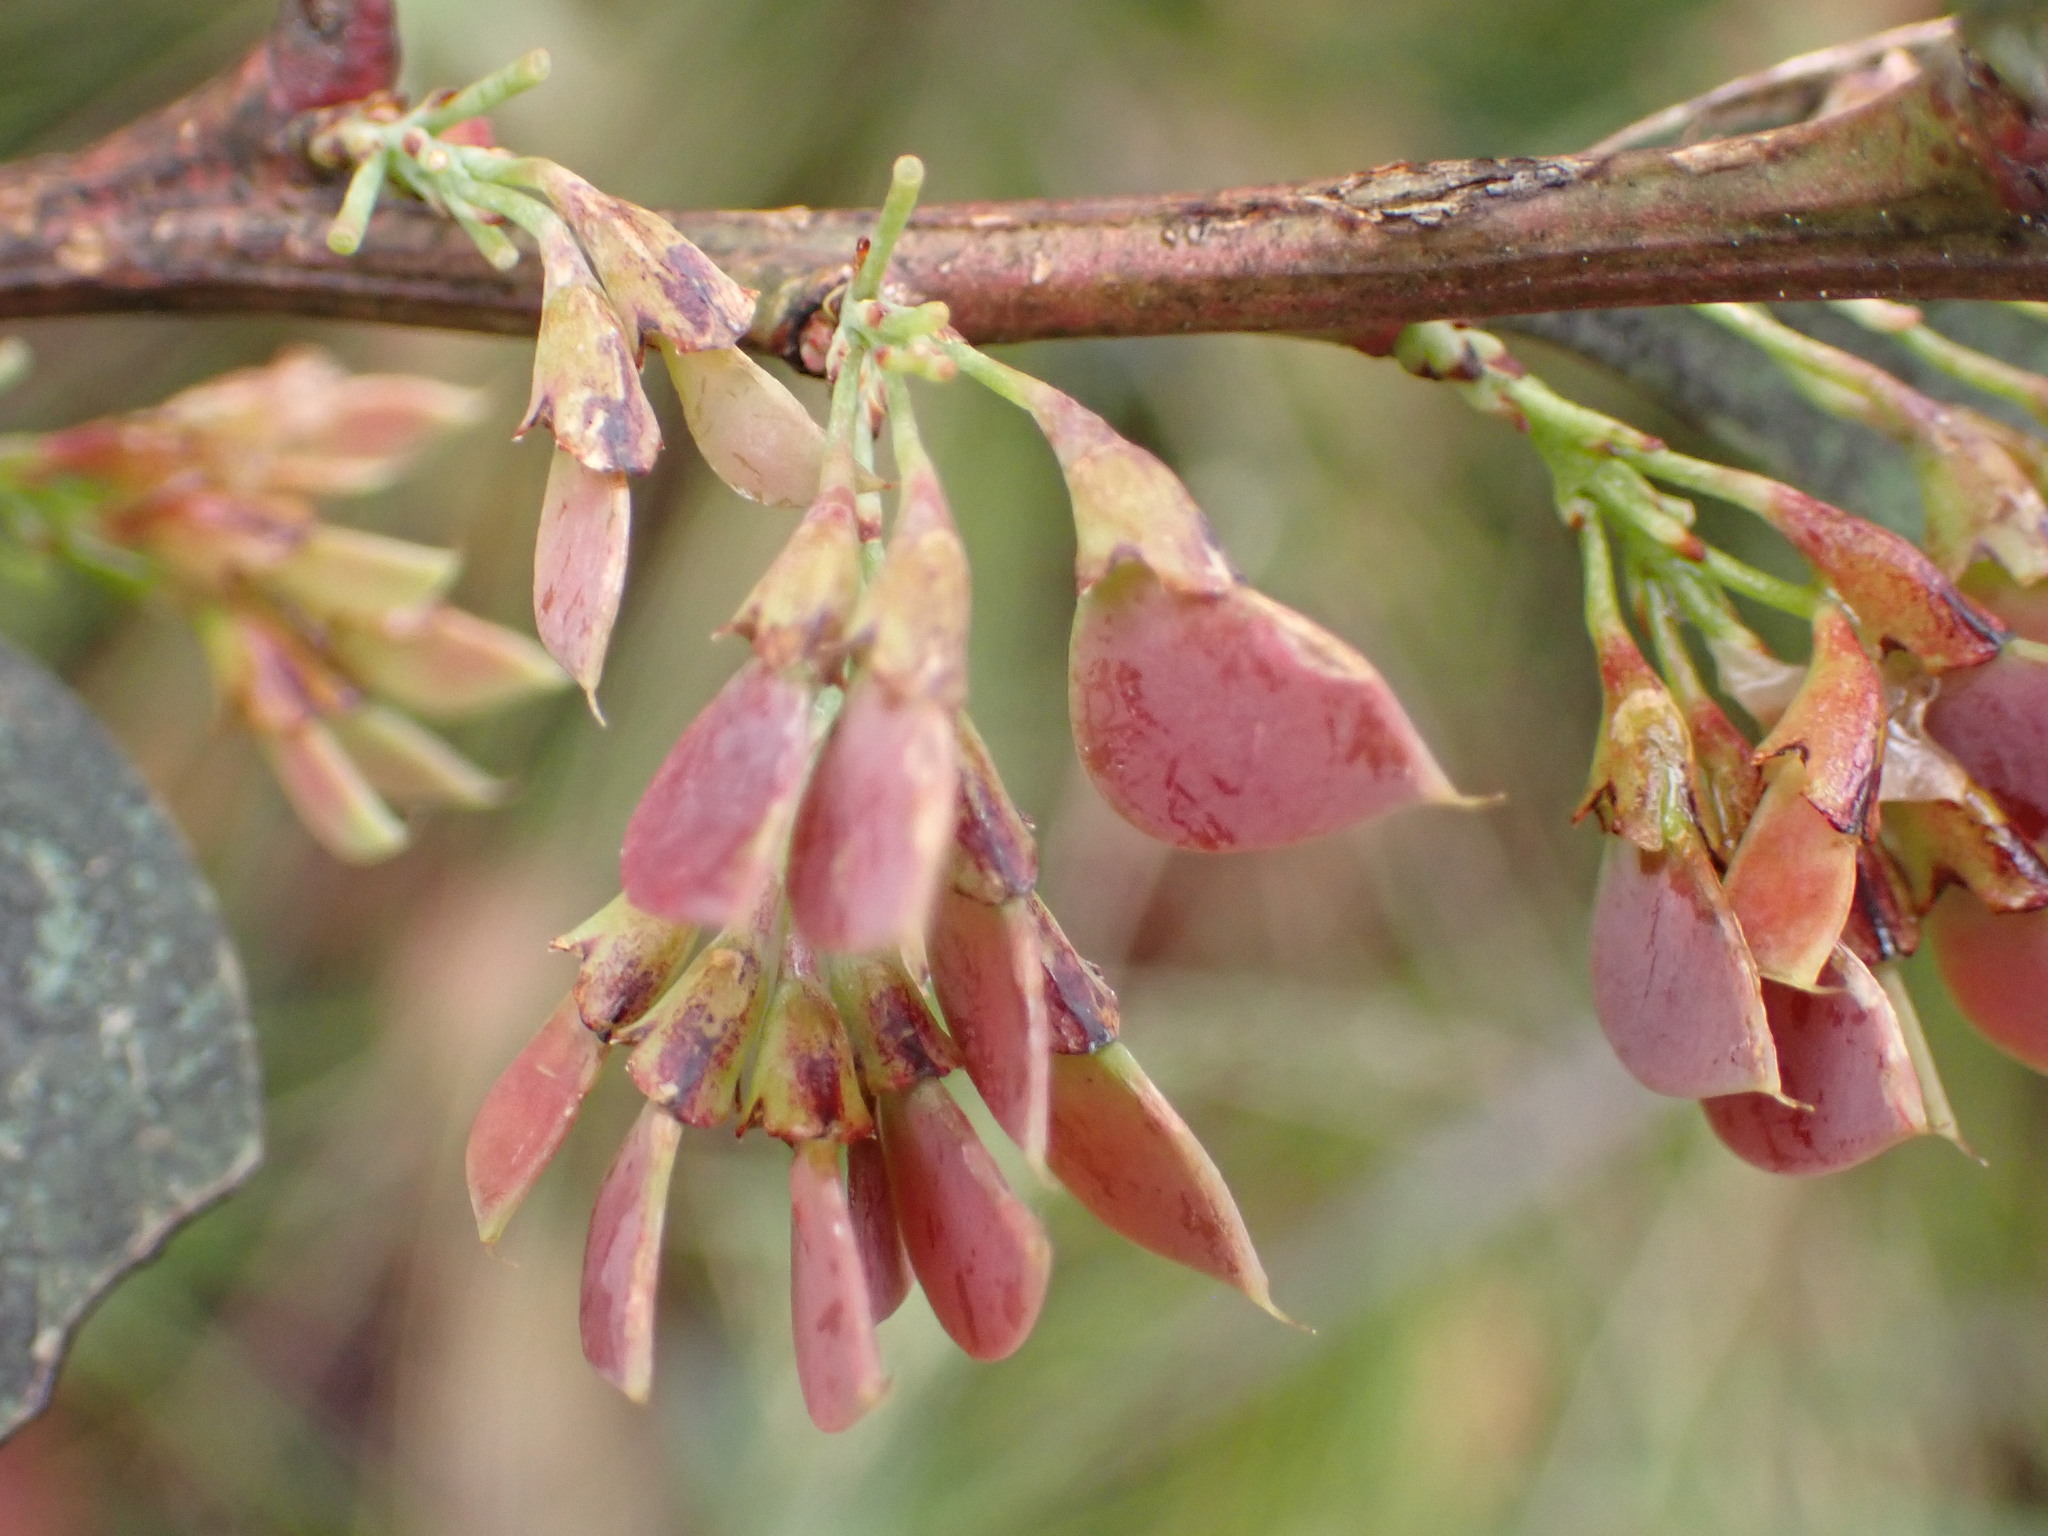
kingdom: Plantae
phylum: Tracheophyta
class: Magnoliopsida
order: Fabales
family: Fabaceae
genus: Daviesia
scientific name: Daviesia mimosoides
